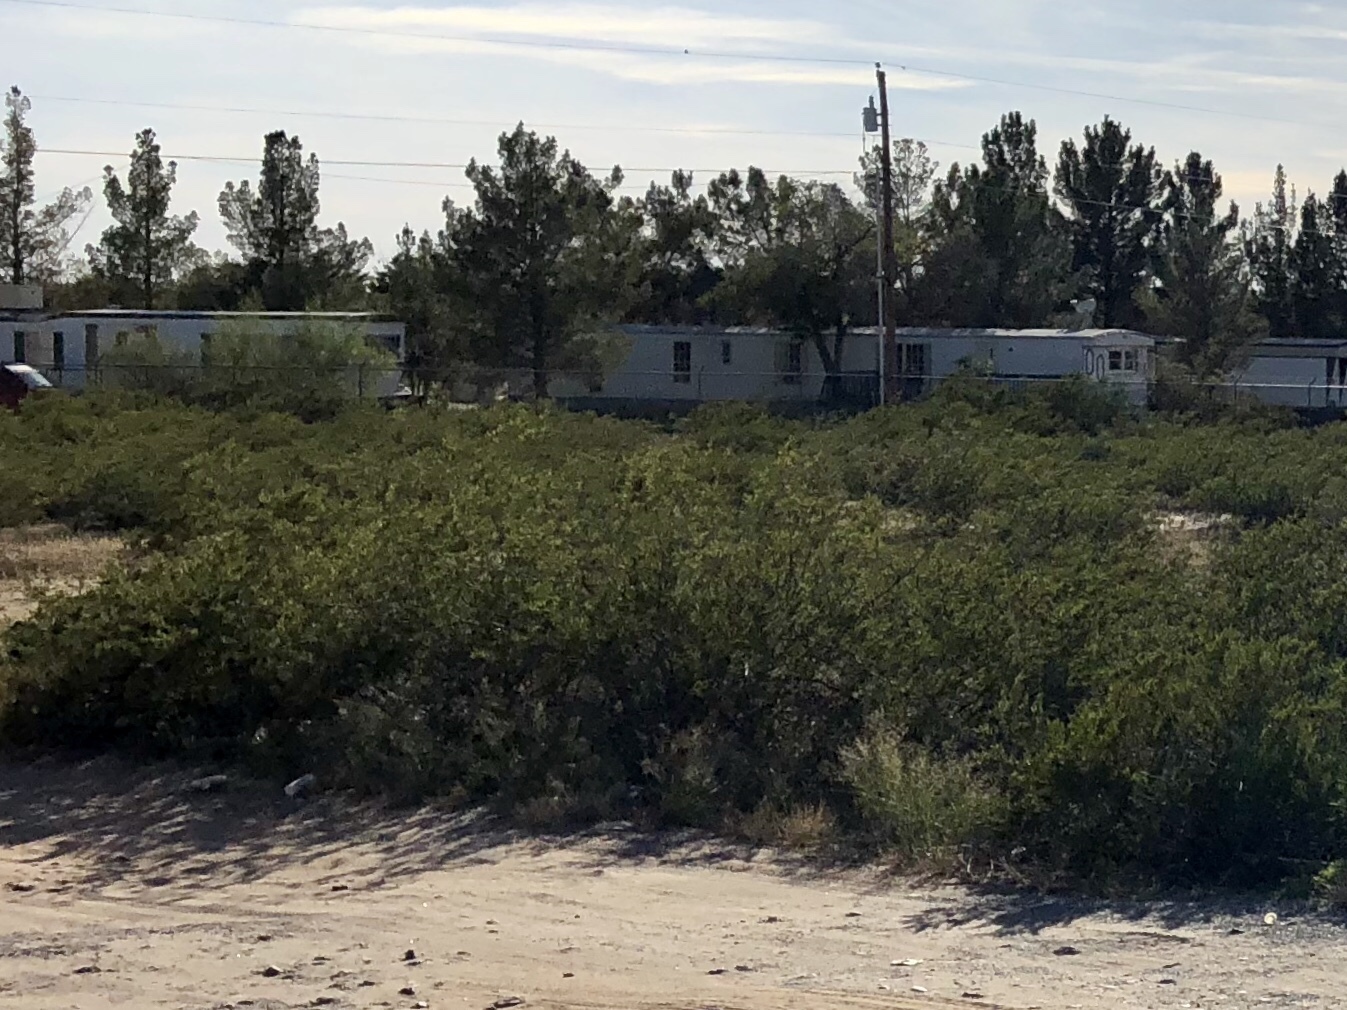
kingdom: Plantae
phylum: Tracheophyta
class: Magnoliopsida
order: Zygophyllales
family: Zygophyllaceae
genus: Larrea
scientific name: Larrea tridentata
